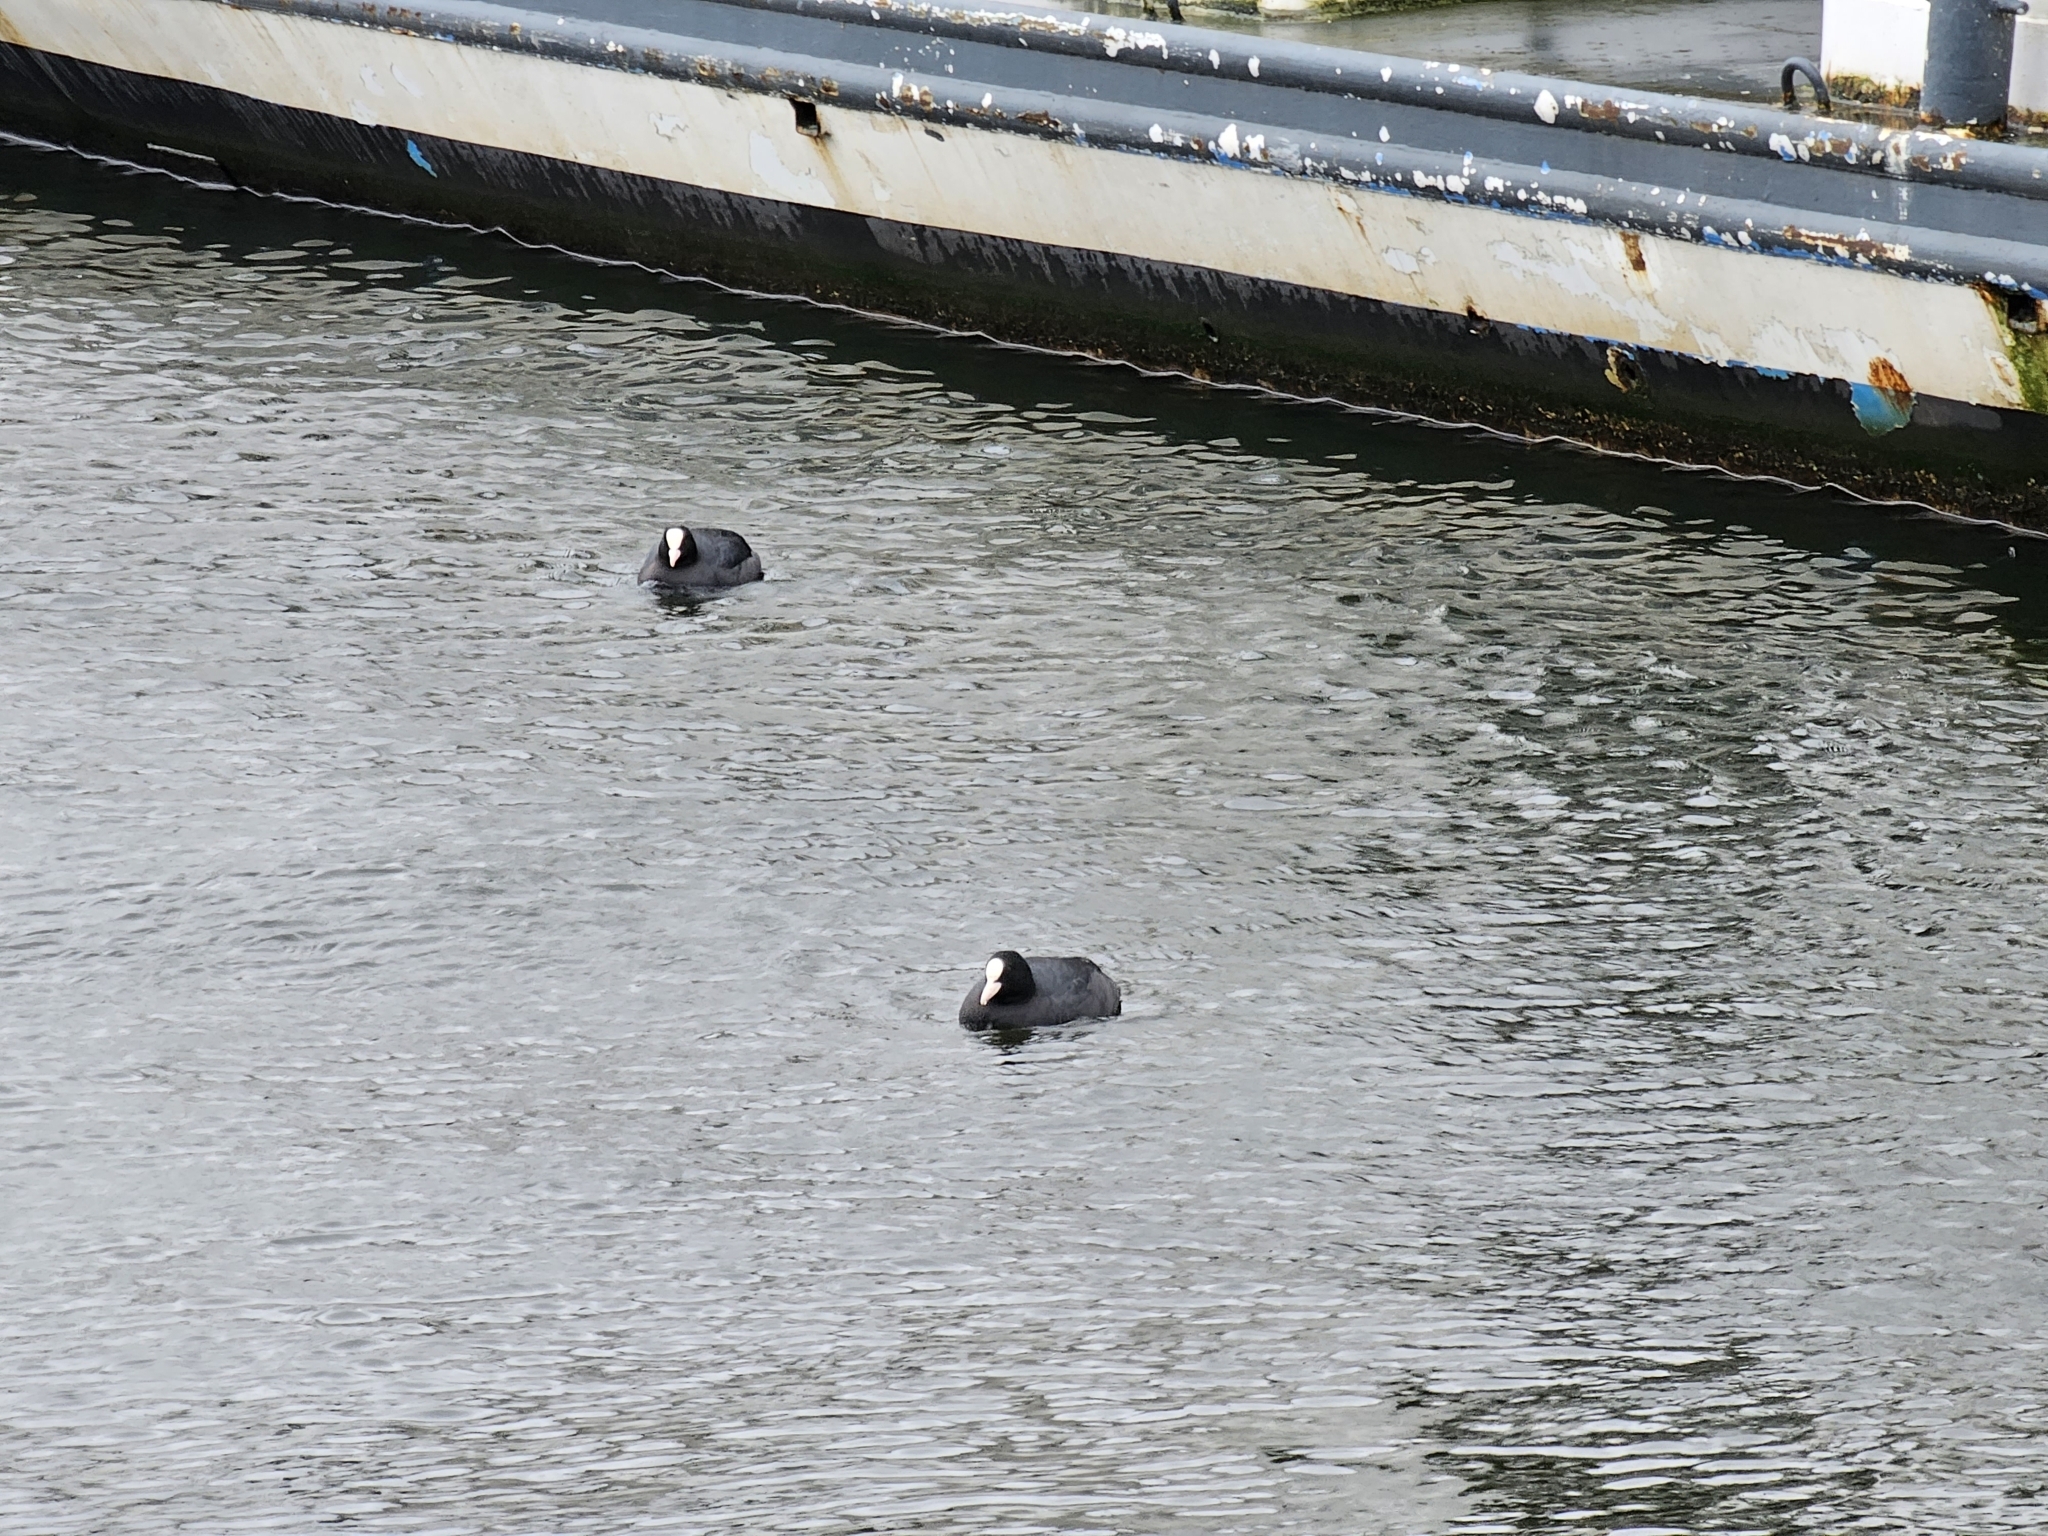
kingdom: Animalia
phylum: Chordata
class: Aves
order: Gruiformes
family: Rallidae
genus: Fulica
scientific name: Fulica atra
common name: Eurasian coot
